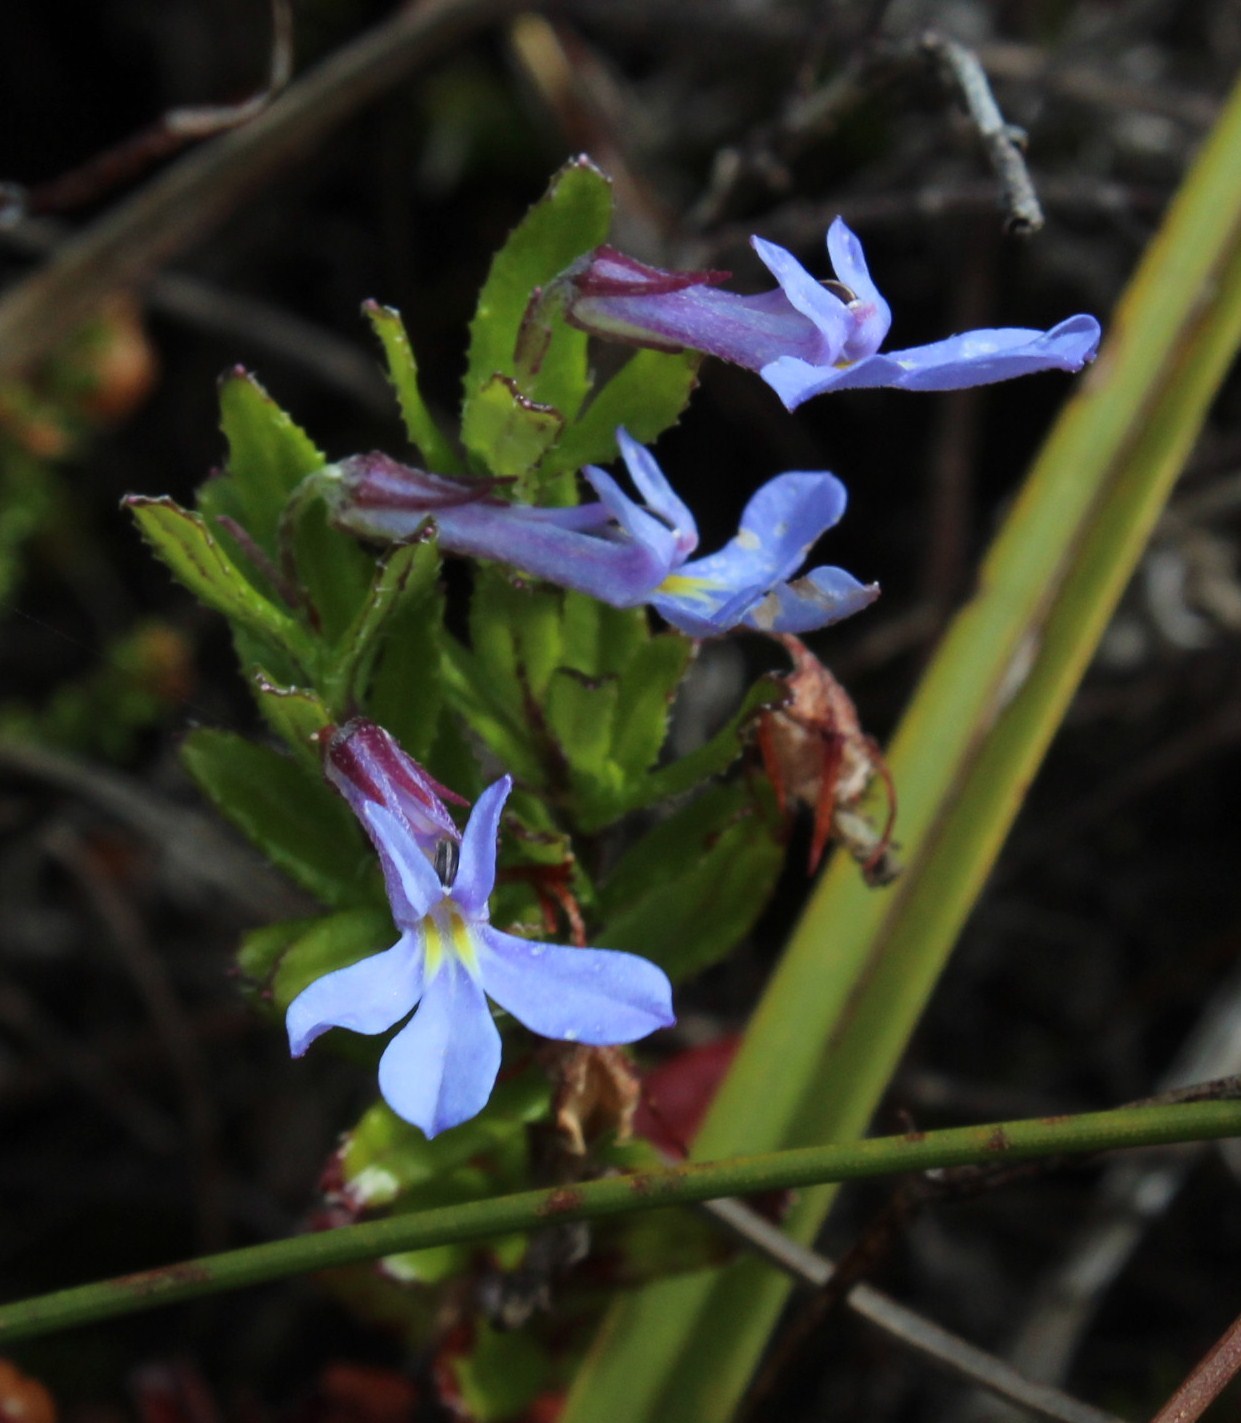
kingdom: Plantae
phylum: Tracheophyta
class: Magnoliopsida
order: Asterales
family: Campanulaceae
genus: Lobelia
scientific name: Lobelia neglecta
